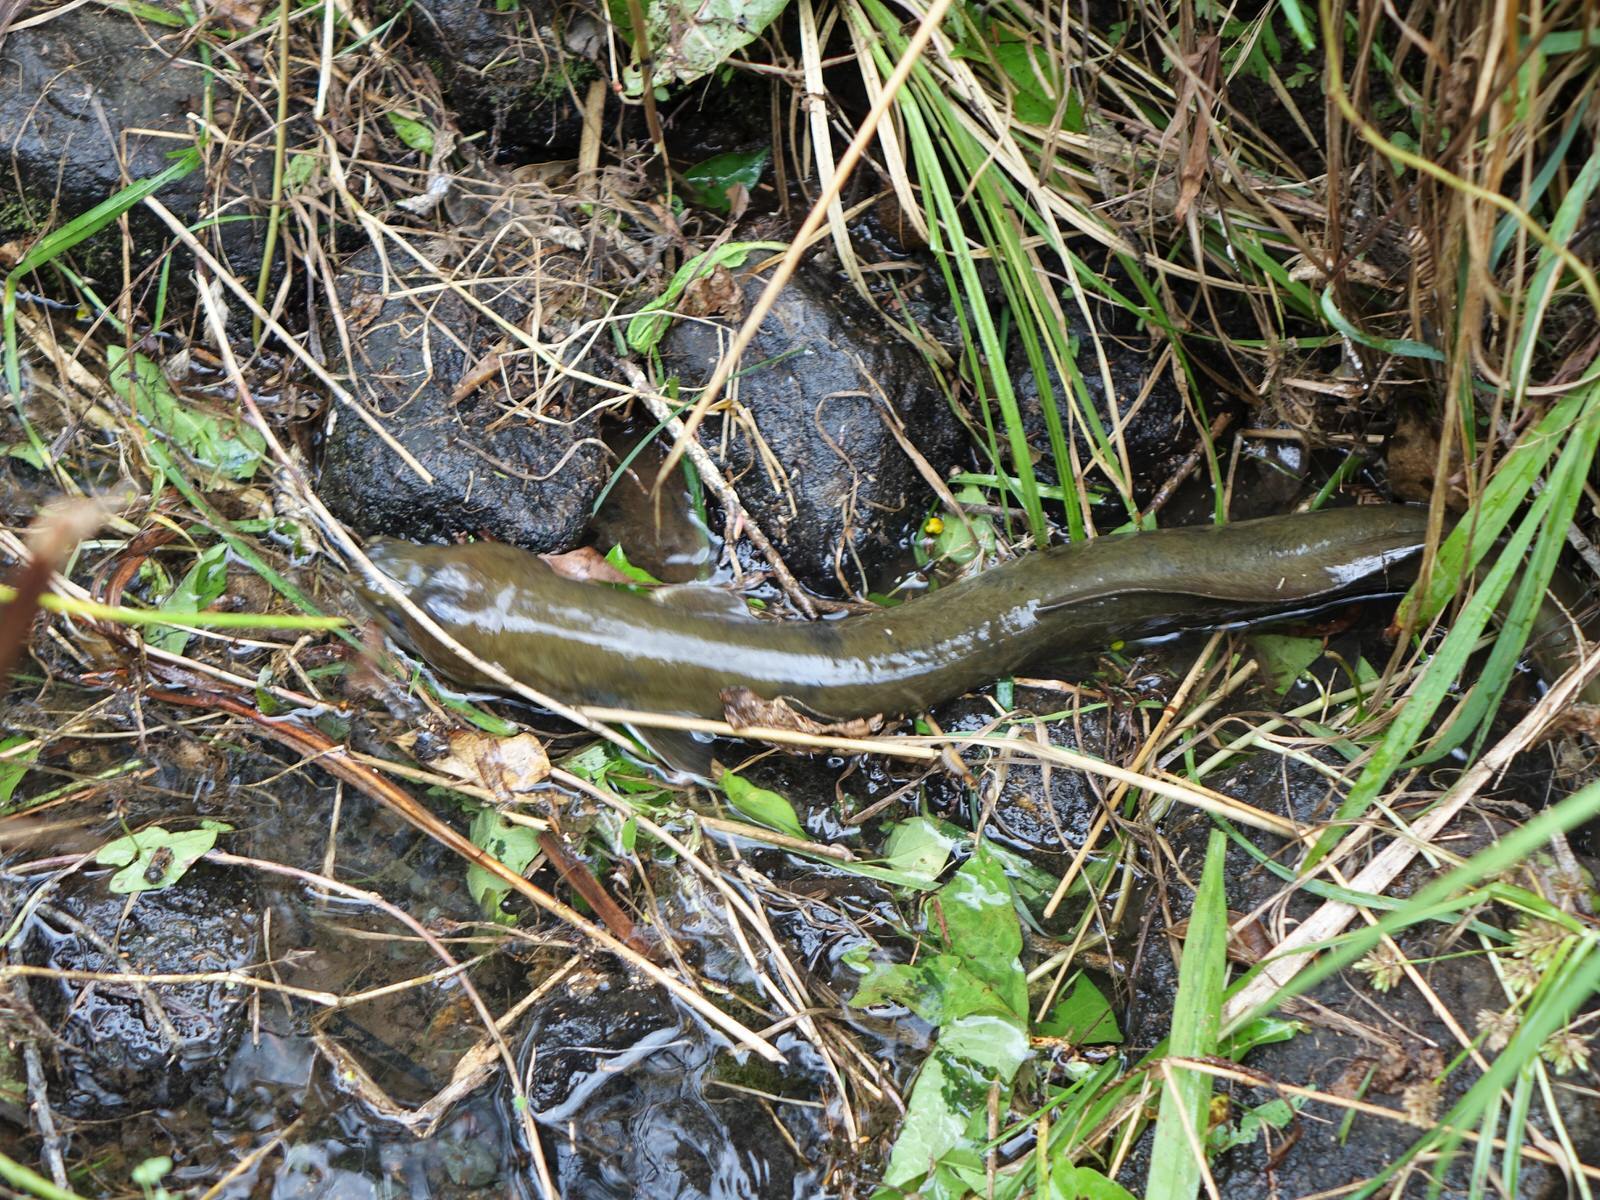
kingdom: Animalia
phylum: Chordata
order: Anguilliformes
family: Anguillidae
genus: Anguilla
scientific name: Anguilla dieffenbachii
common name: New zealand longfin eel
